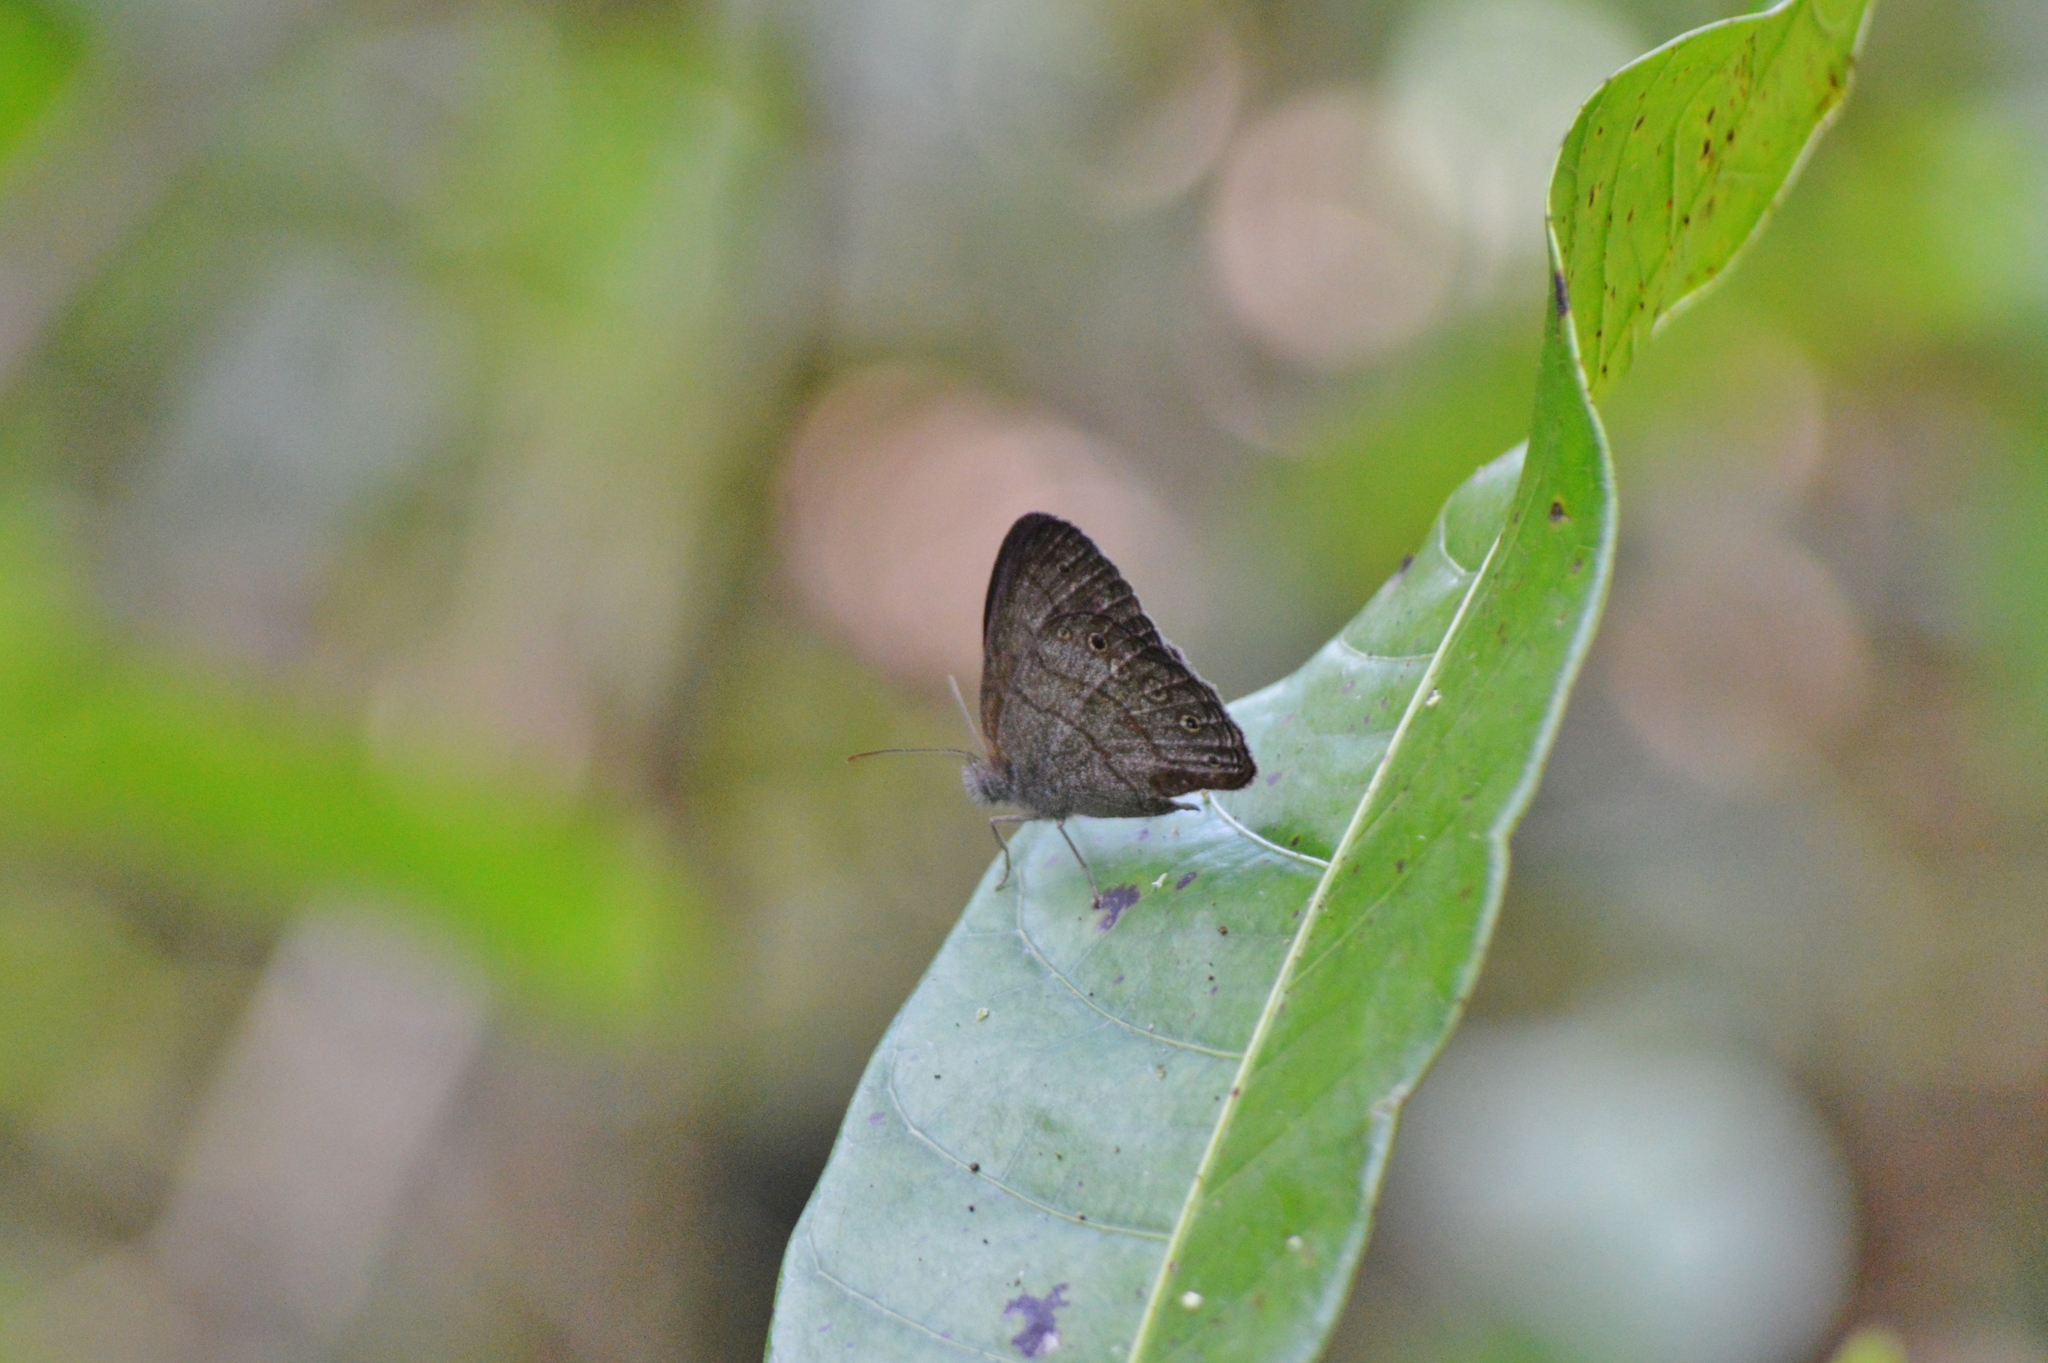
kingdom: Animalia
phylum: Arthropoda
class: Insecta
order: Lepidoptera
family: Nymphalidae
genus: Hermeuptychia
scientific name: Hermeuptychia hermes
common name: Hermes satyr
